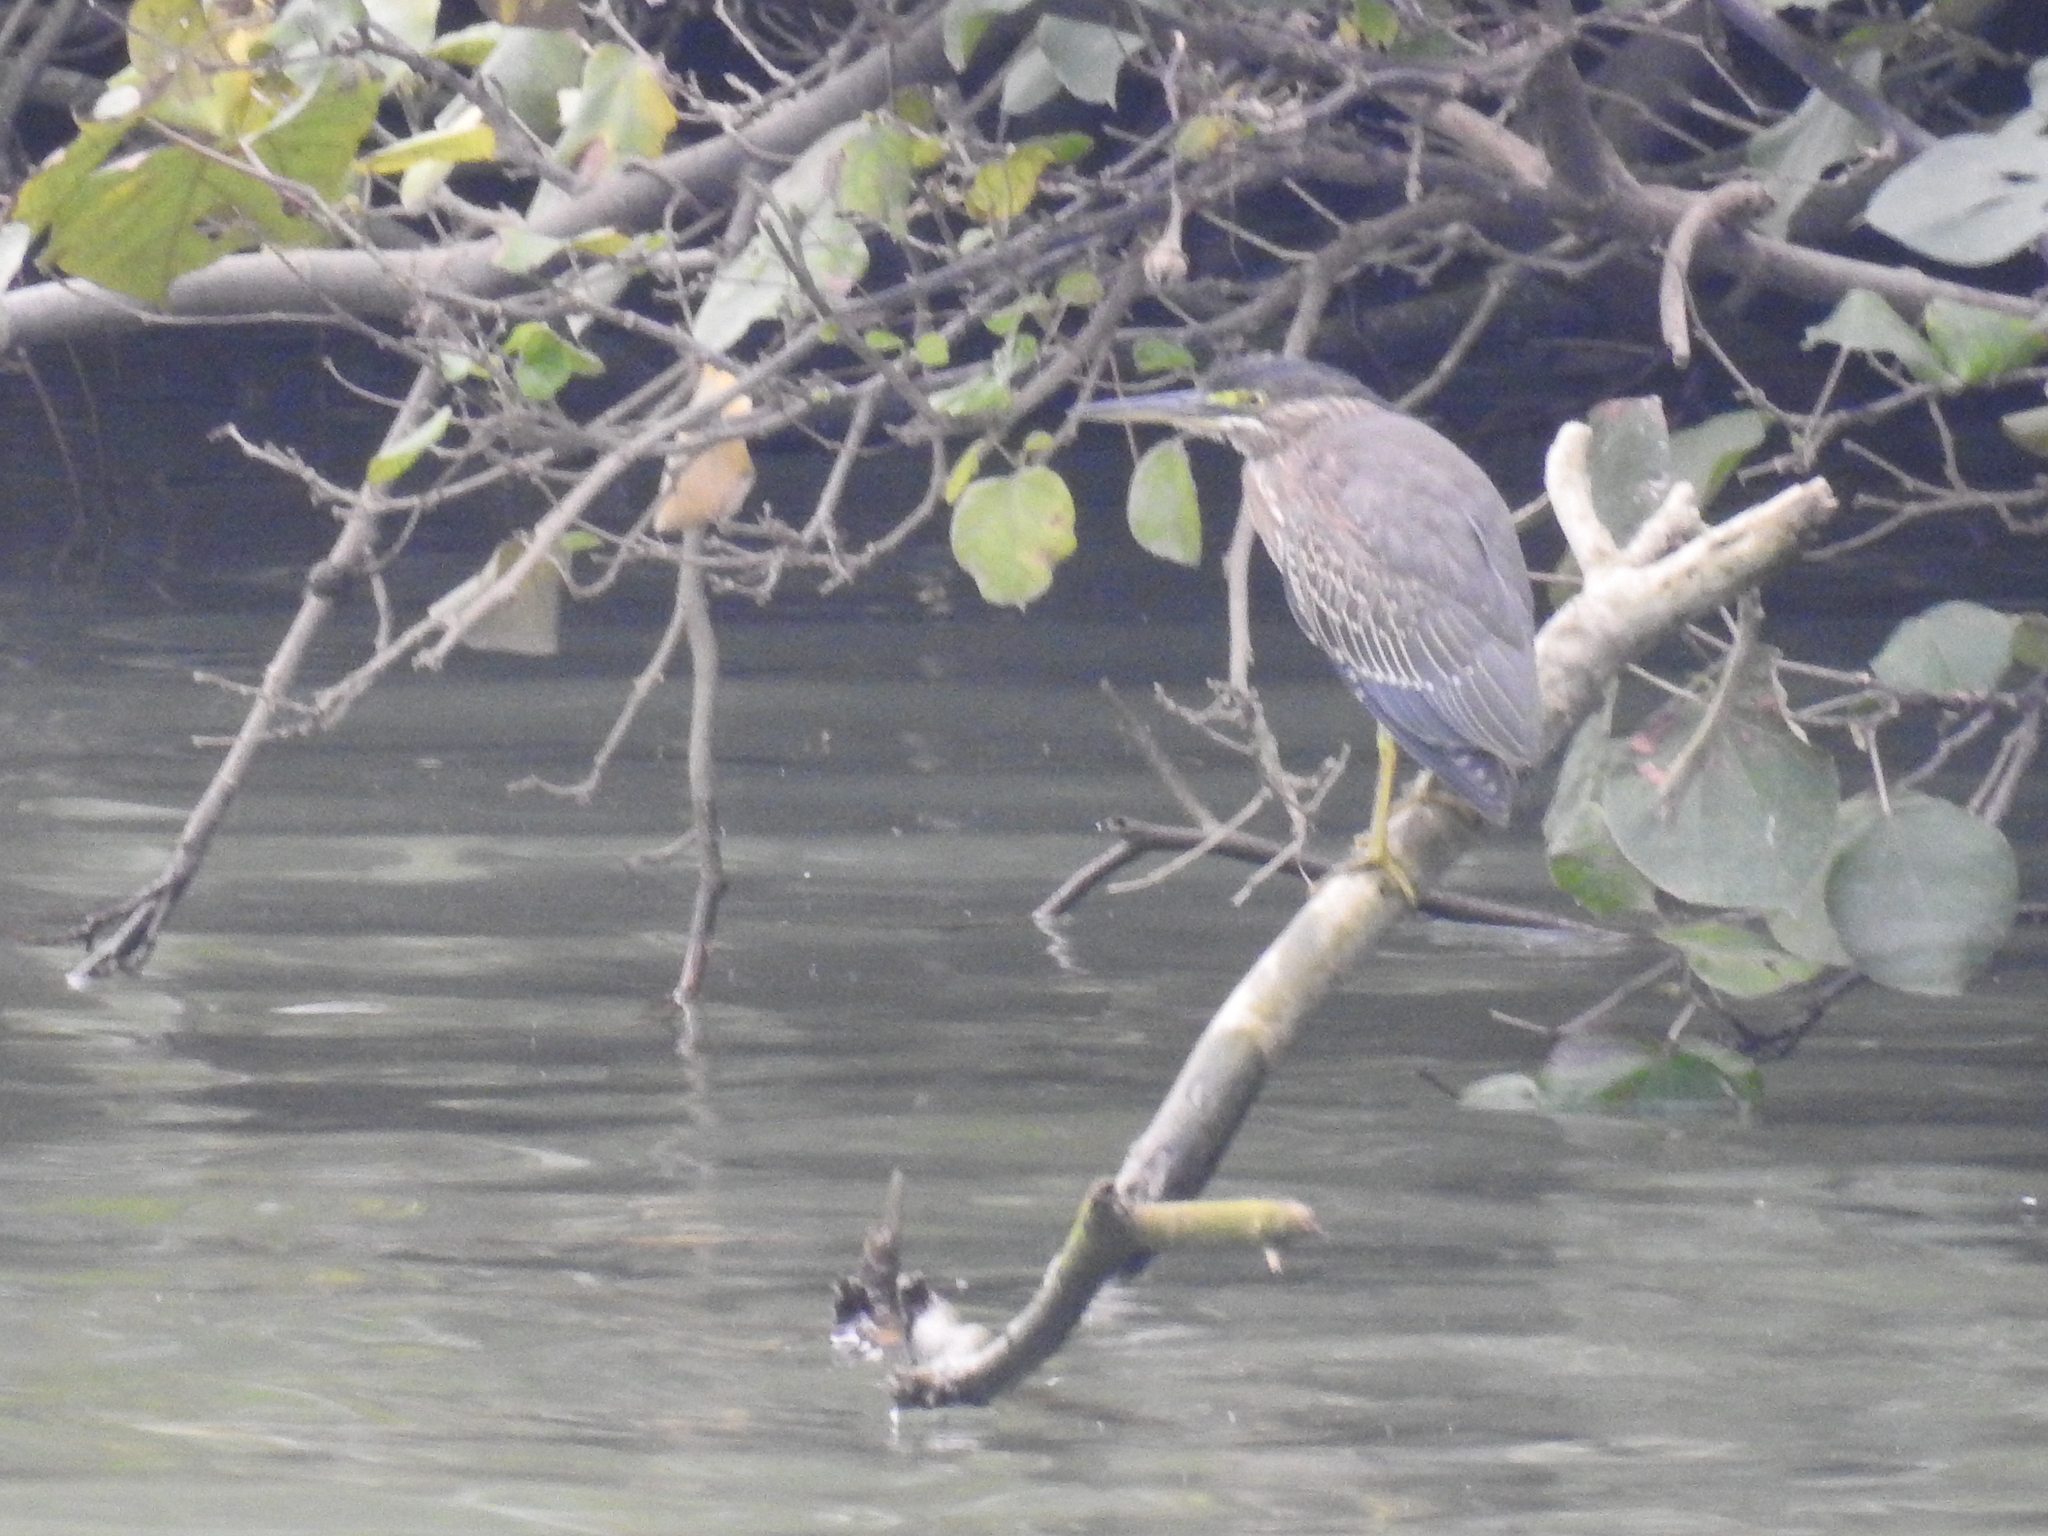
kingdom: Animalia
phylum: Chordata
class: Aves
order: Pelecaniformes
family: Ardeidae
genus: Butorides
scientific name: Butorides striata
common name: Striated heron
